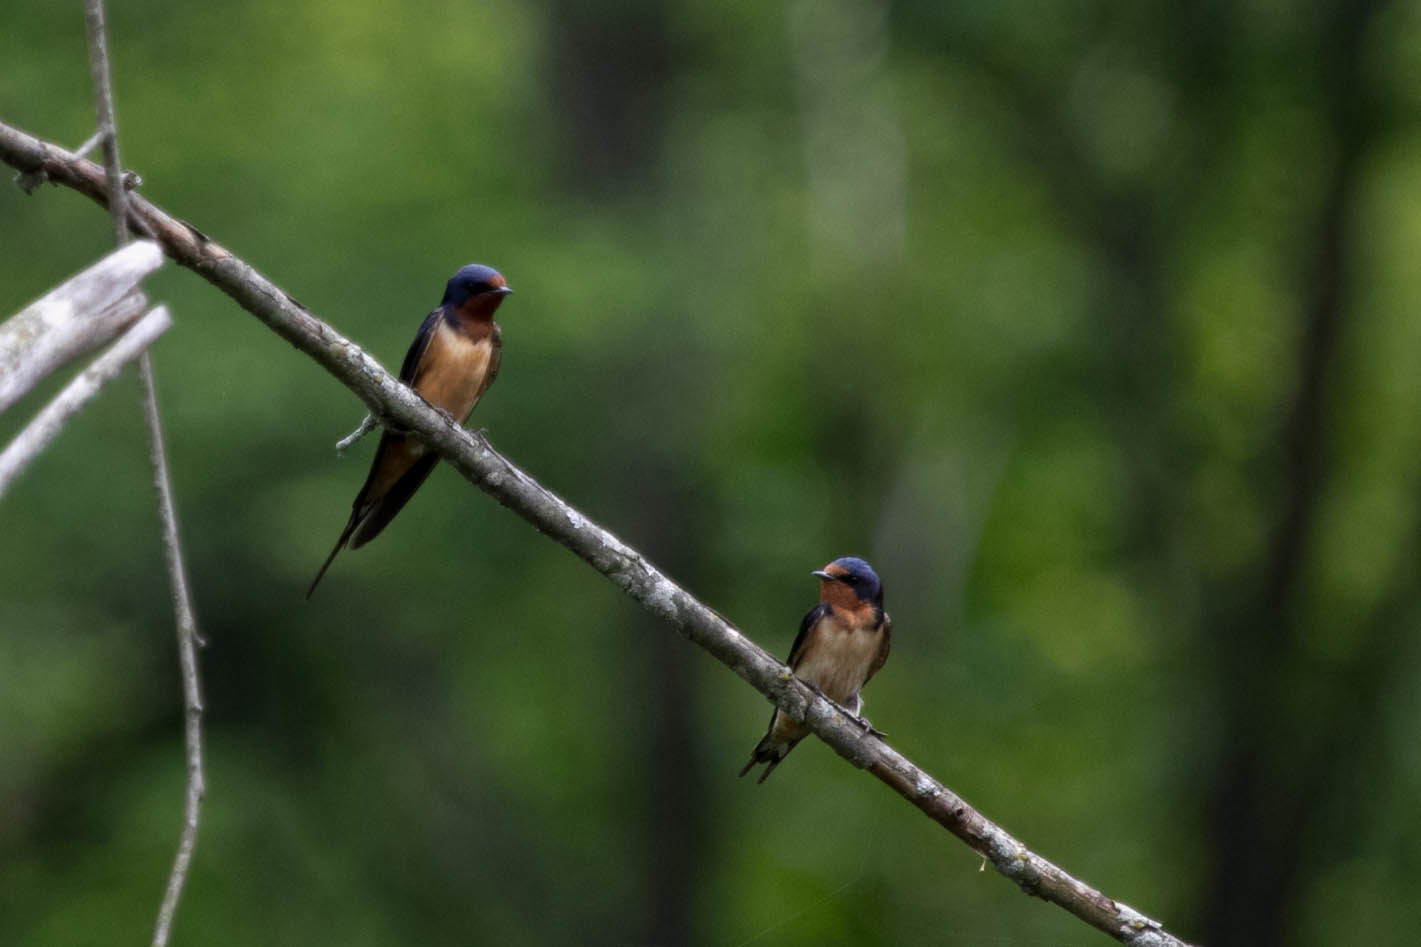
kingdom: Animalia
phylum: Chordata
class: Aves
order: Passeriformes
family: Hirundinidae
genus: Hirundo
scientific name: Hirundo rustica
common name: Barn swallow
